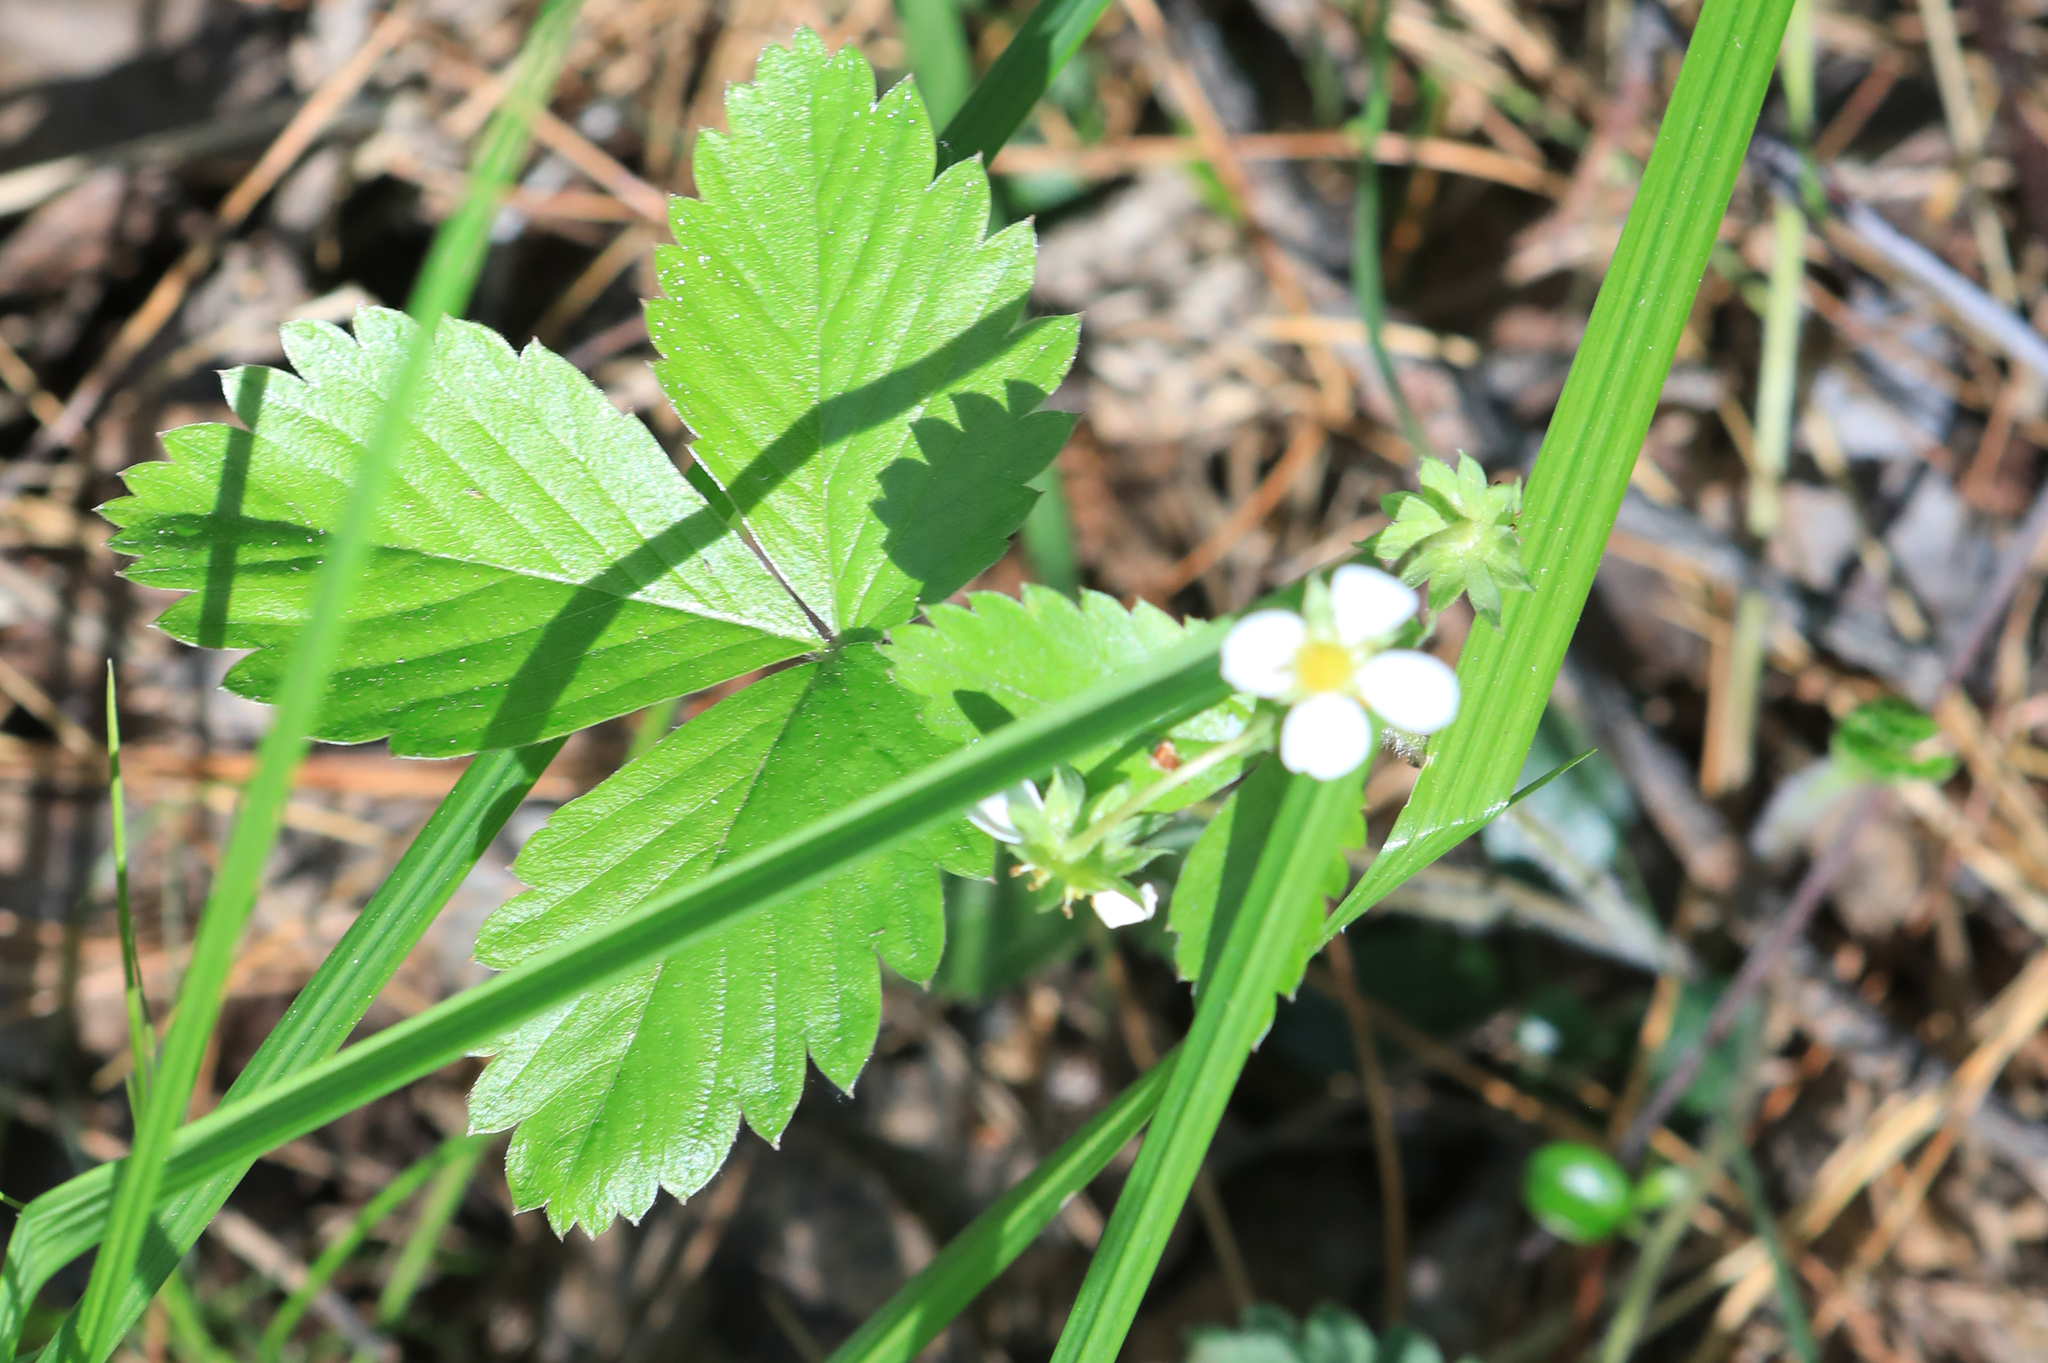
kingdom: Plantae
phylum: Tracheophyta
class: Magnoliopsida
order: Rosales
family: Rosaceae
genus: Fragaria
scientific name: Fragaria vesca
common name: Wild strawberry
